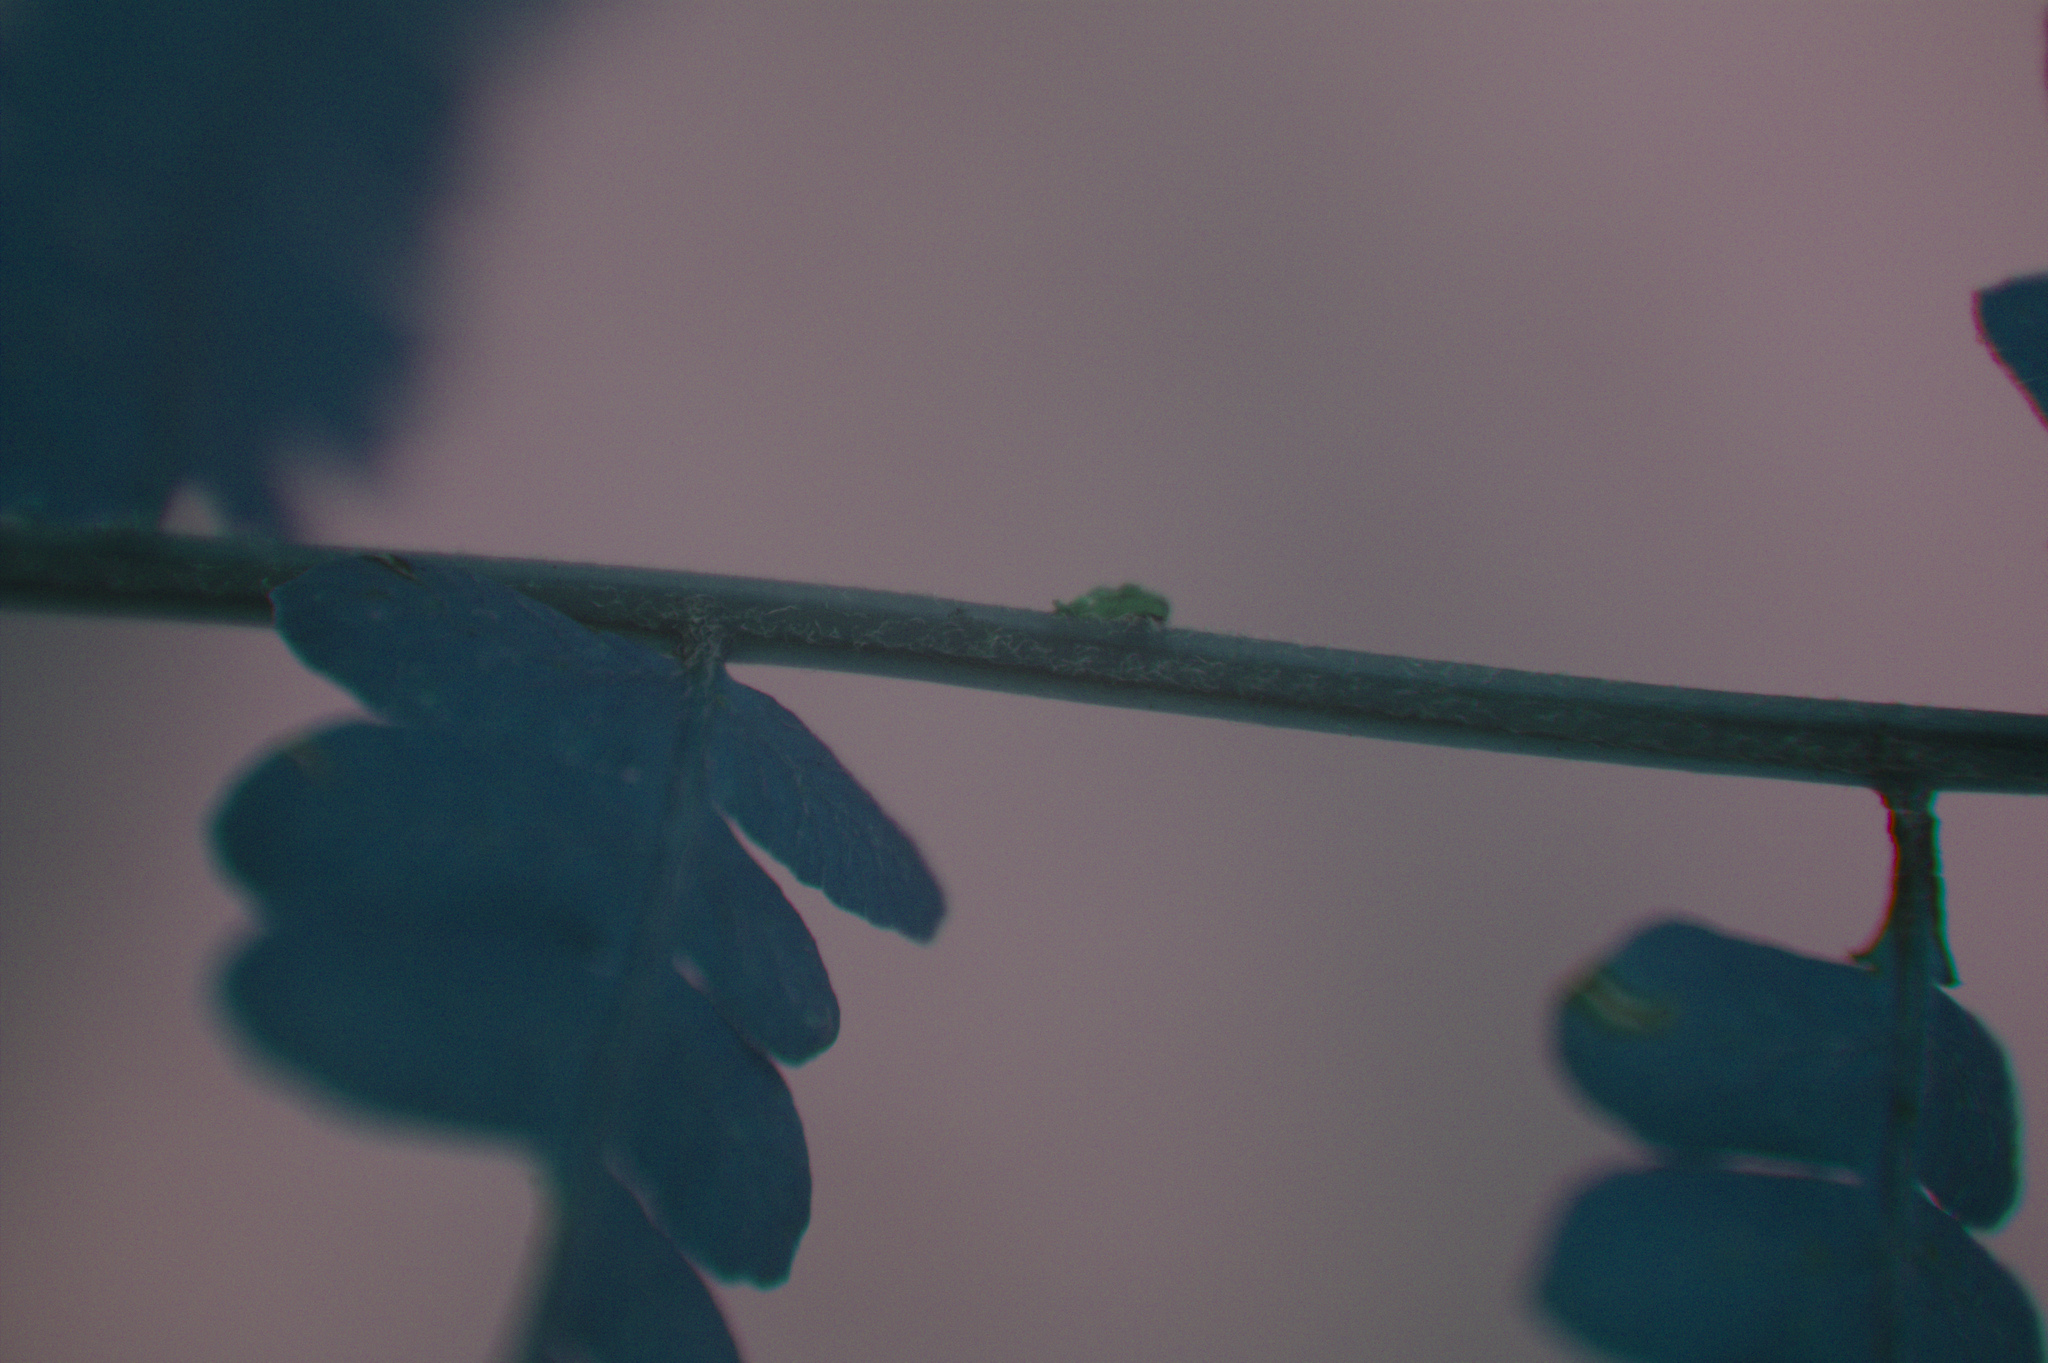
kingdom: Plantae
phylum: Tracheophyta
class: Polypodiopsida
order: Polypodiales
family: Thelypteridaceae
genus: Thelypteris
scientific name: Thelypteris palustris
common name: Marsh fern
